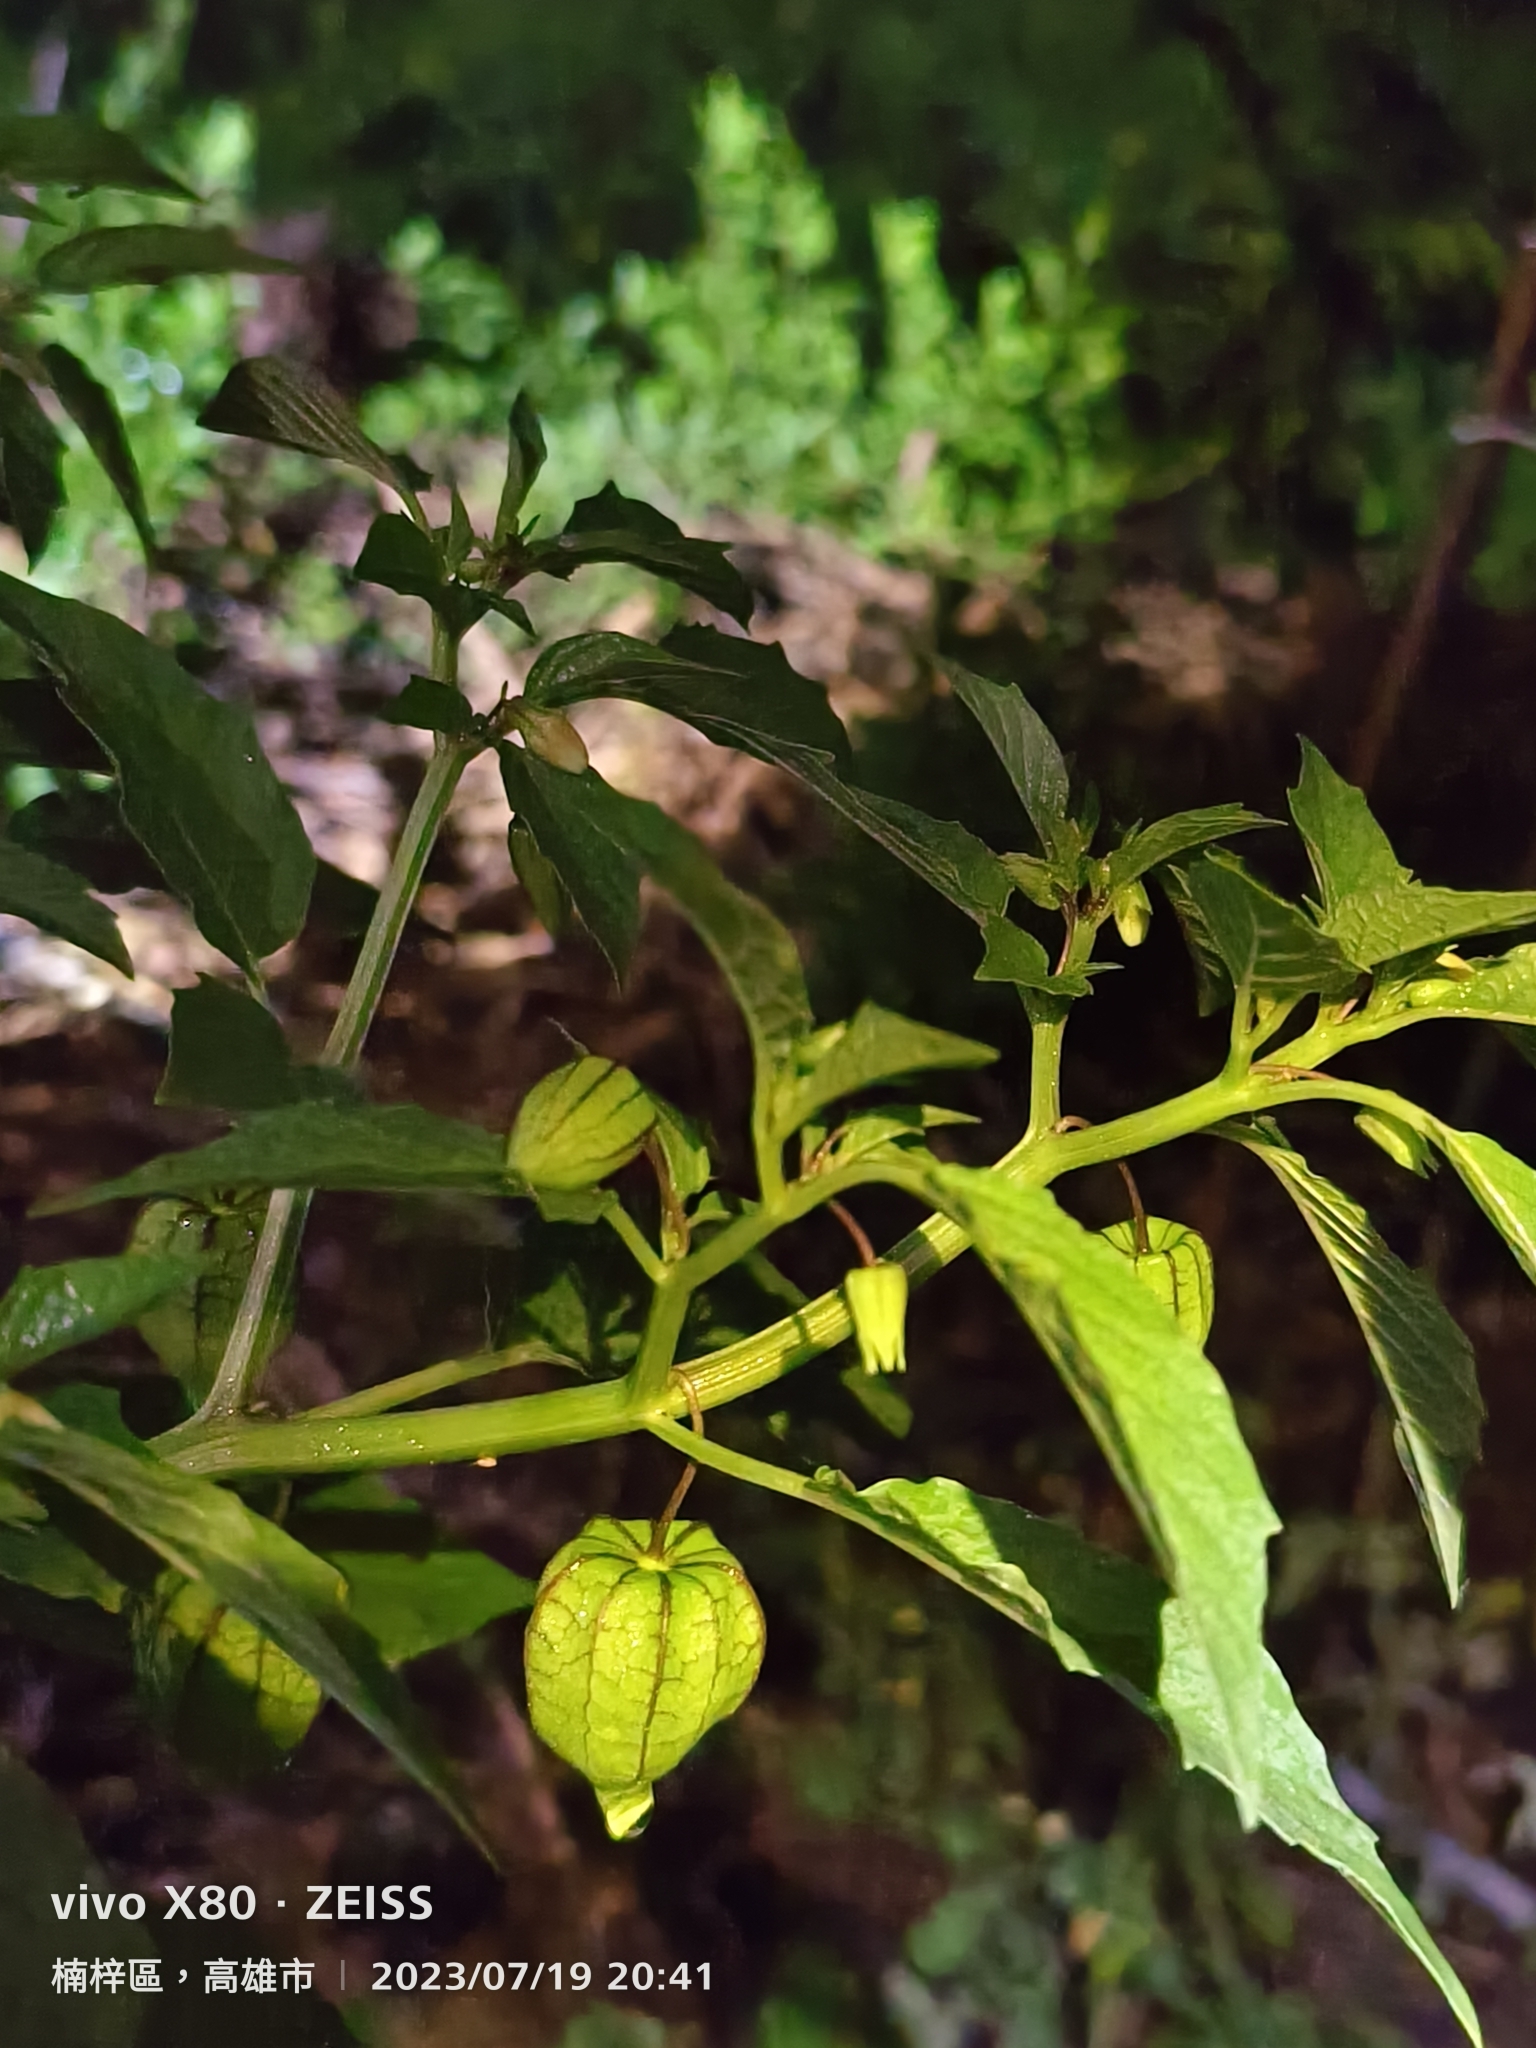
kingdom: Plantae
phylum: Tracheophyta
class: Magnoliopsida
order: Solanales
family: Solanaceae
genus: Physalis
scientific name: Physalis angulata
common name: Angular winter-cherry
